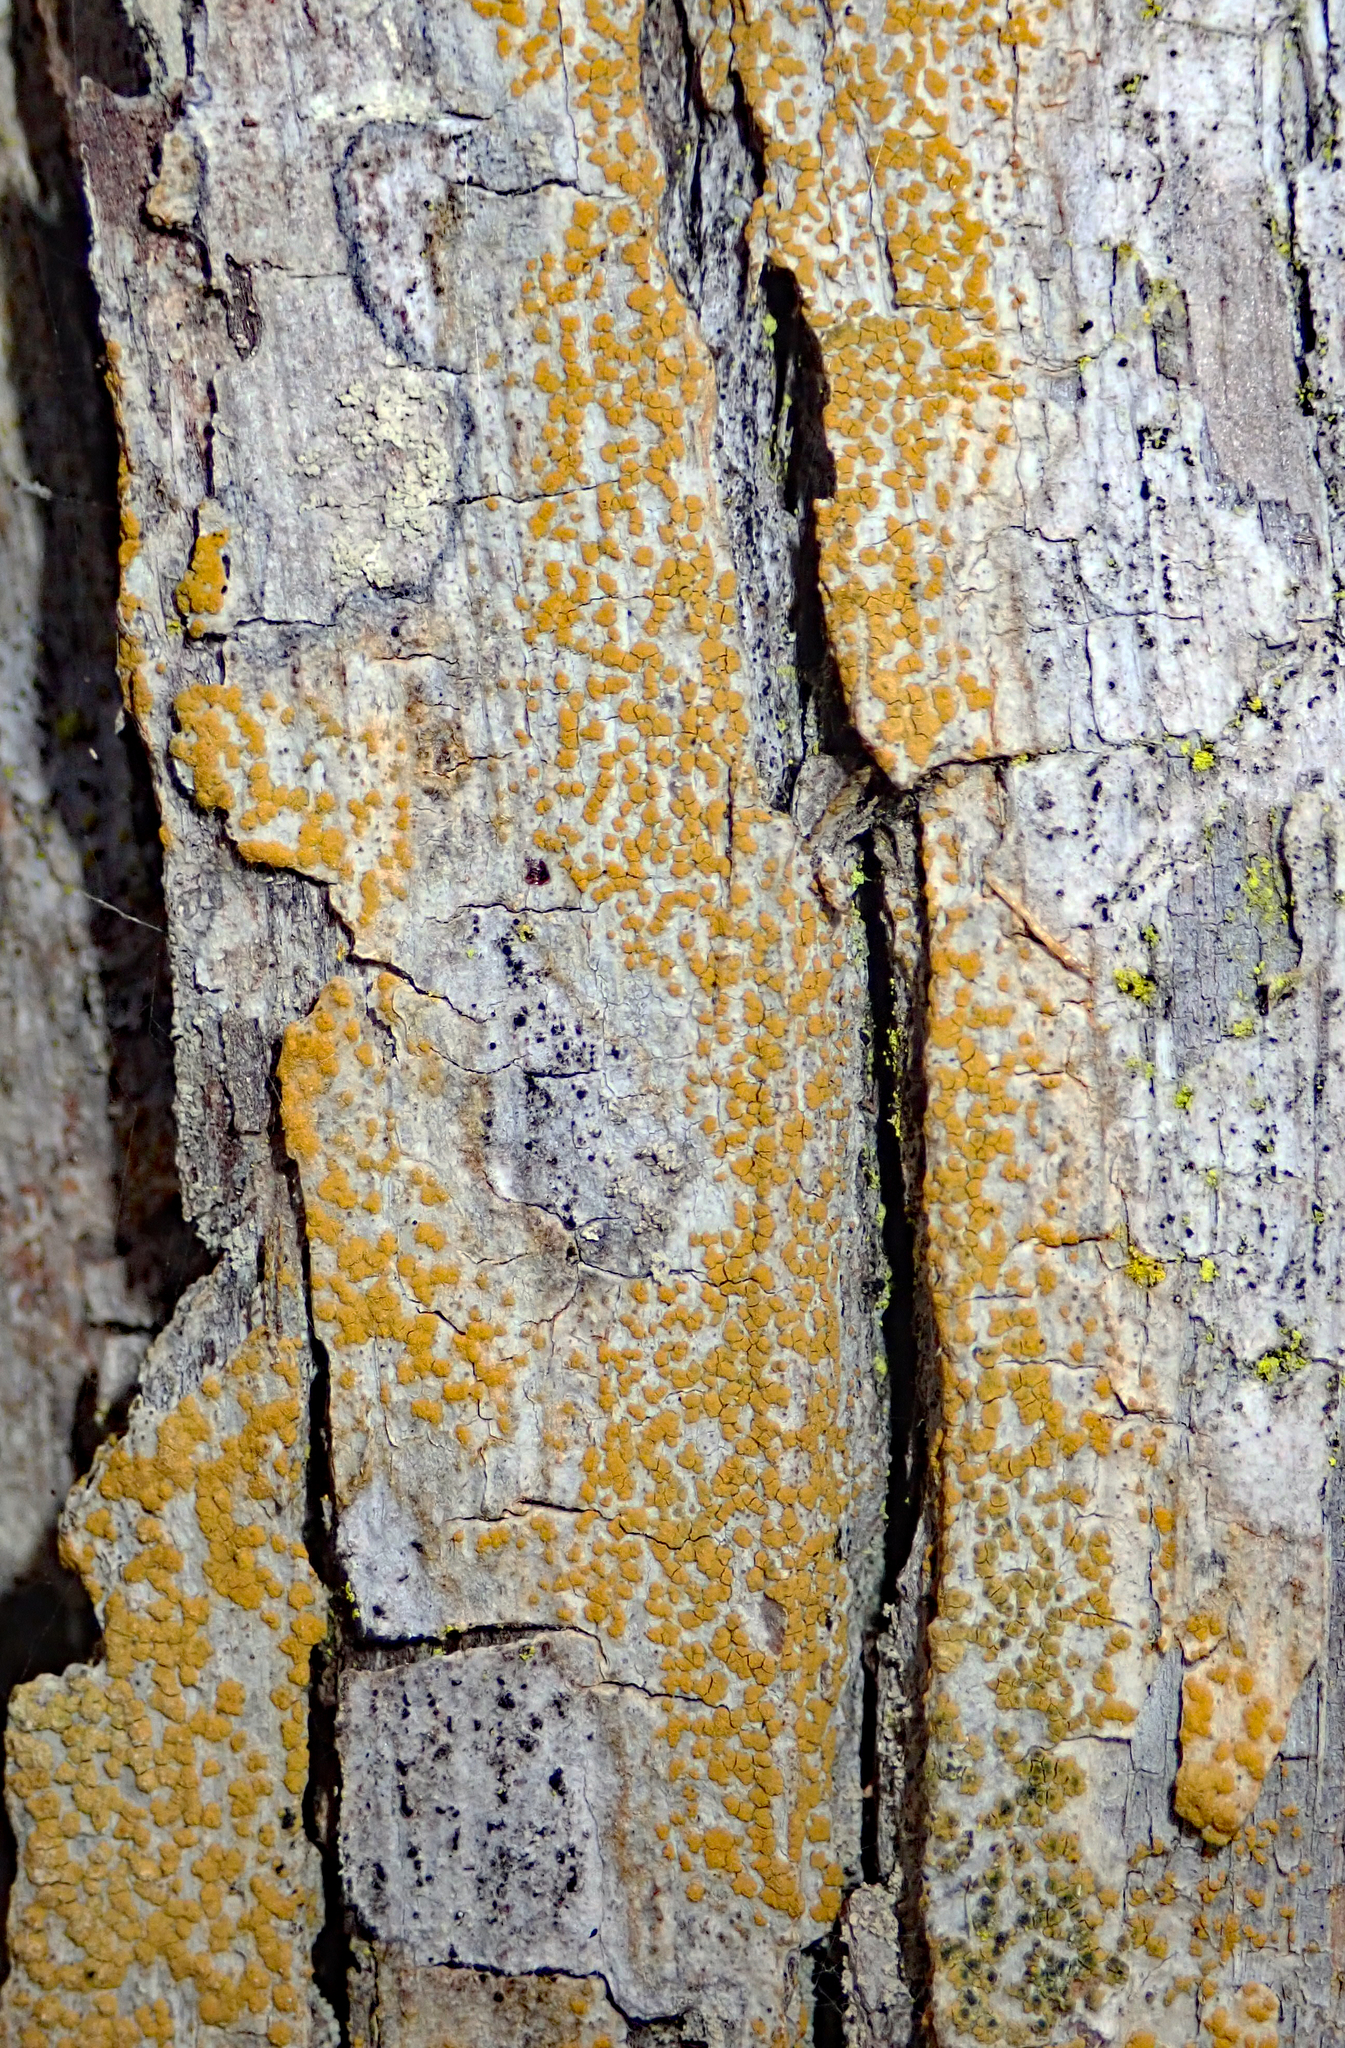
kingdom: Fungi
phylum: Ascomycota
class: Lecanoromycetes
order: Teloschistales
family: Teloschistaceae
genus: Solitaria
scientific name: Solitaria chrysophthalma
